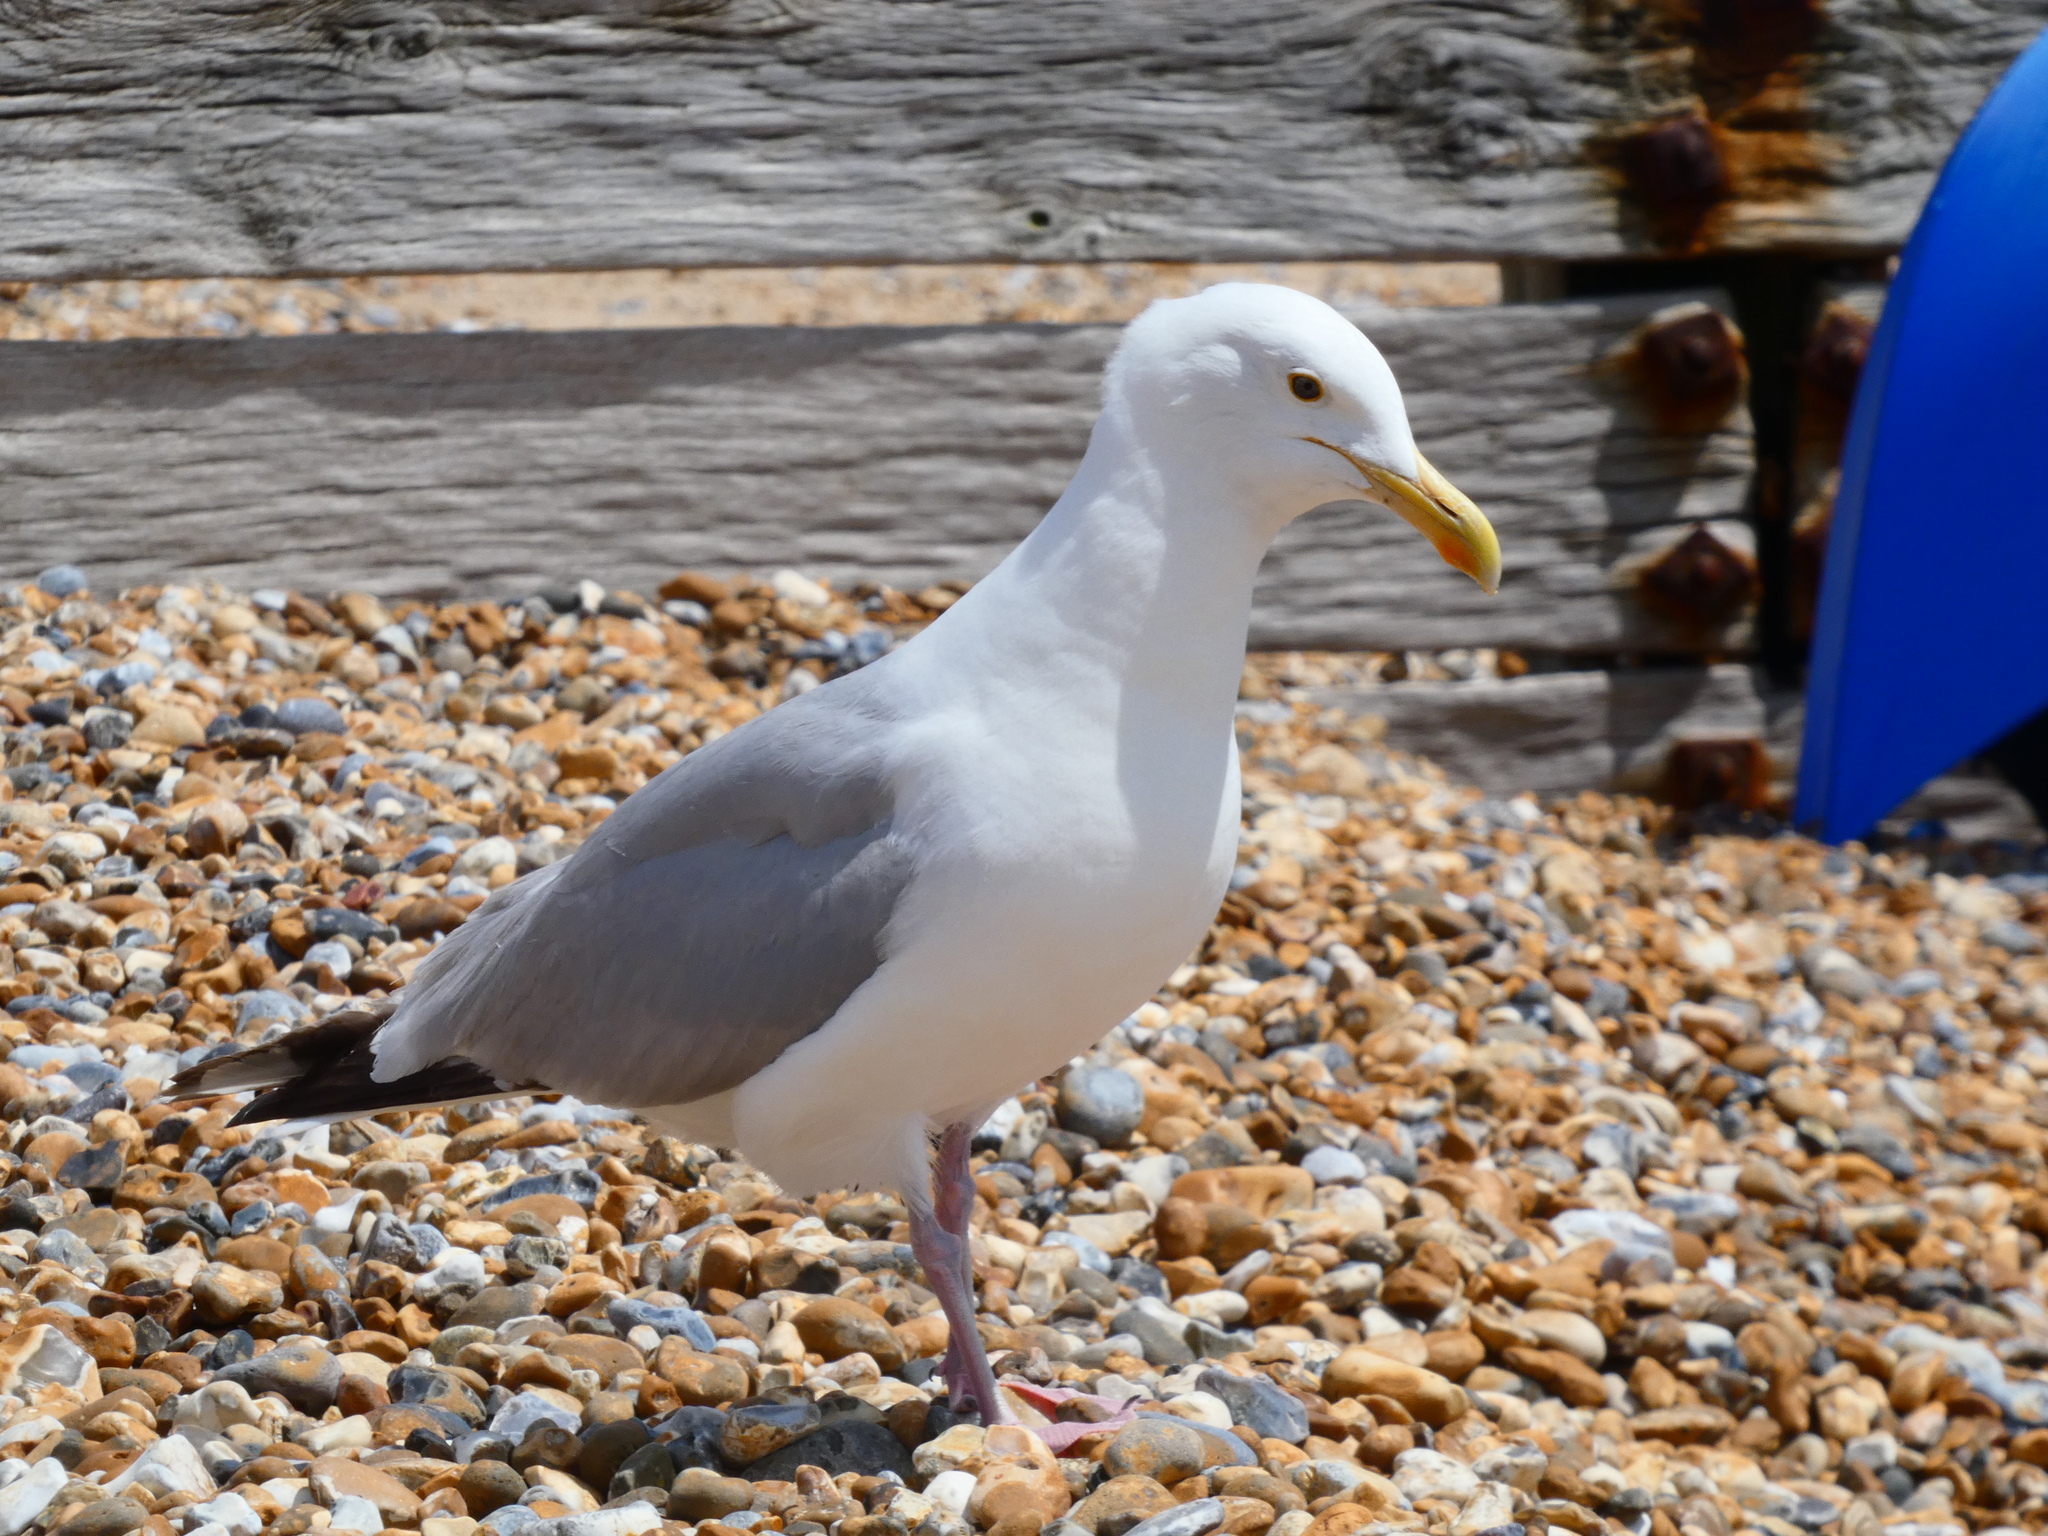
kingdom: Animalia
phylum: Chordata
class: Aves
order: Charadriiformes
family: Laridae
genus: Larus
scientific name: Larus argentatus
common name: Herring gull
